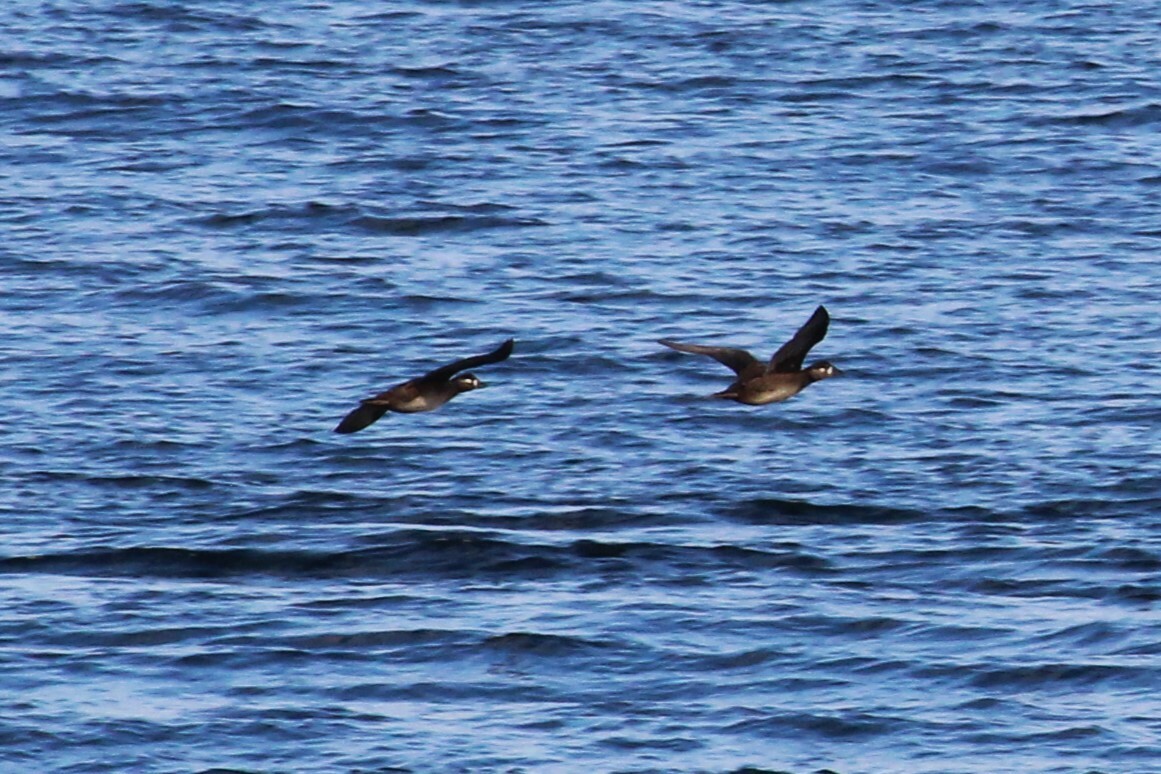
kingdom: Animalia
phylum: Chordata
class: Aves
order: Anseriformes
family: Anatidae
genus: Melanitta
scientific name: Melanitta perspicillata
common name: Surf scoter
